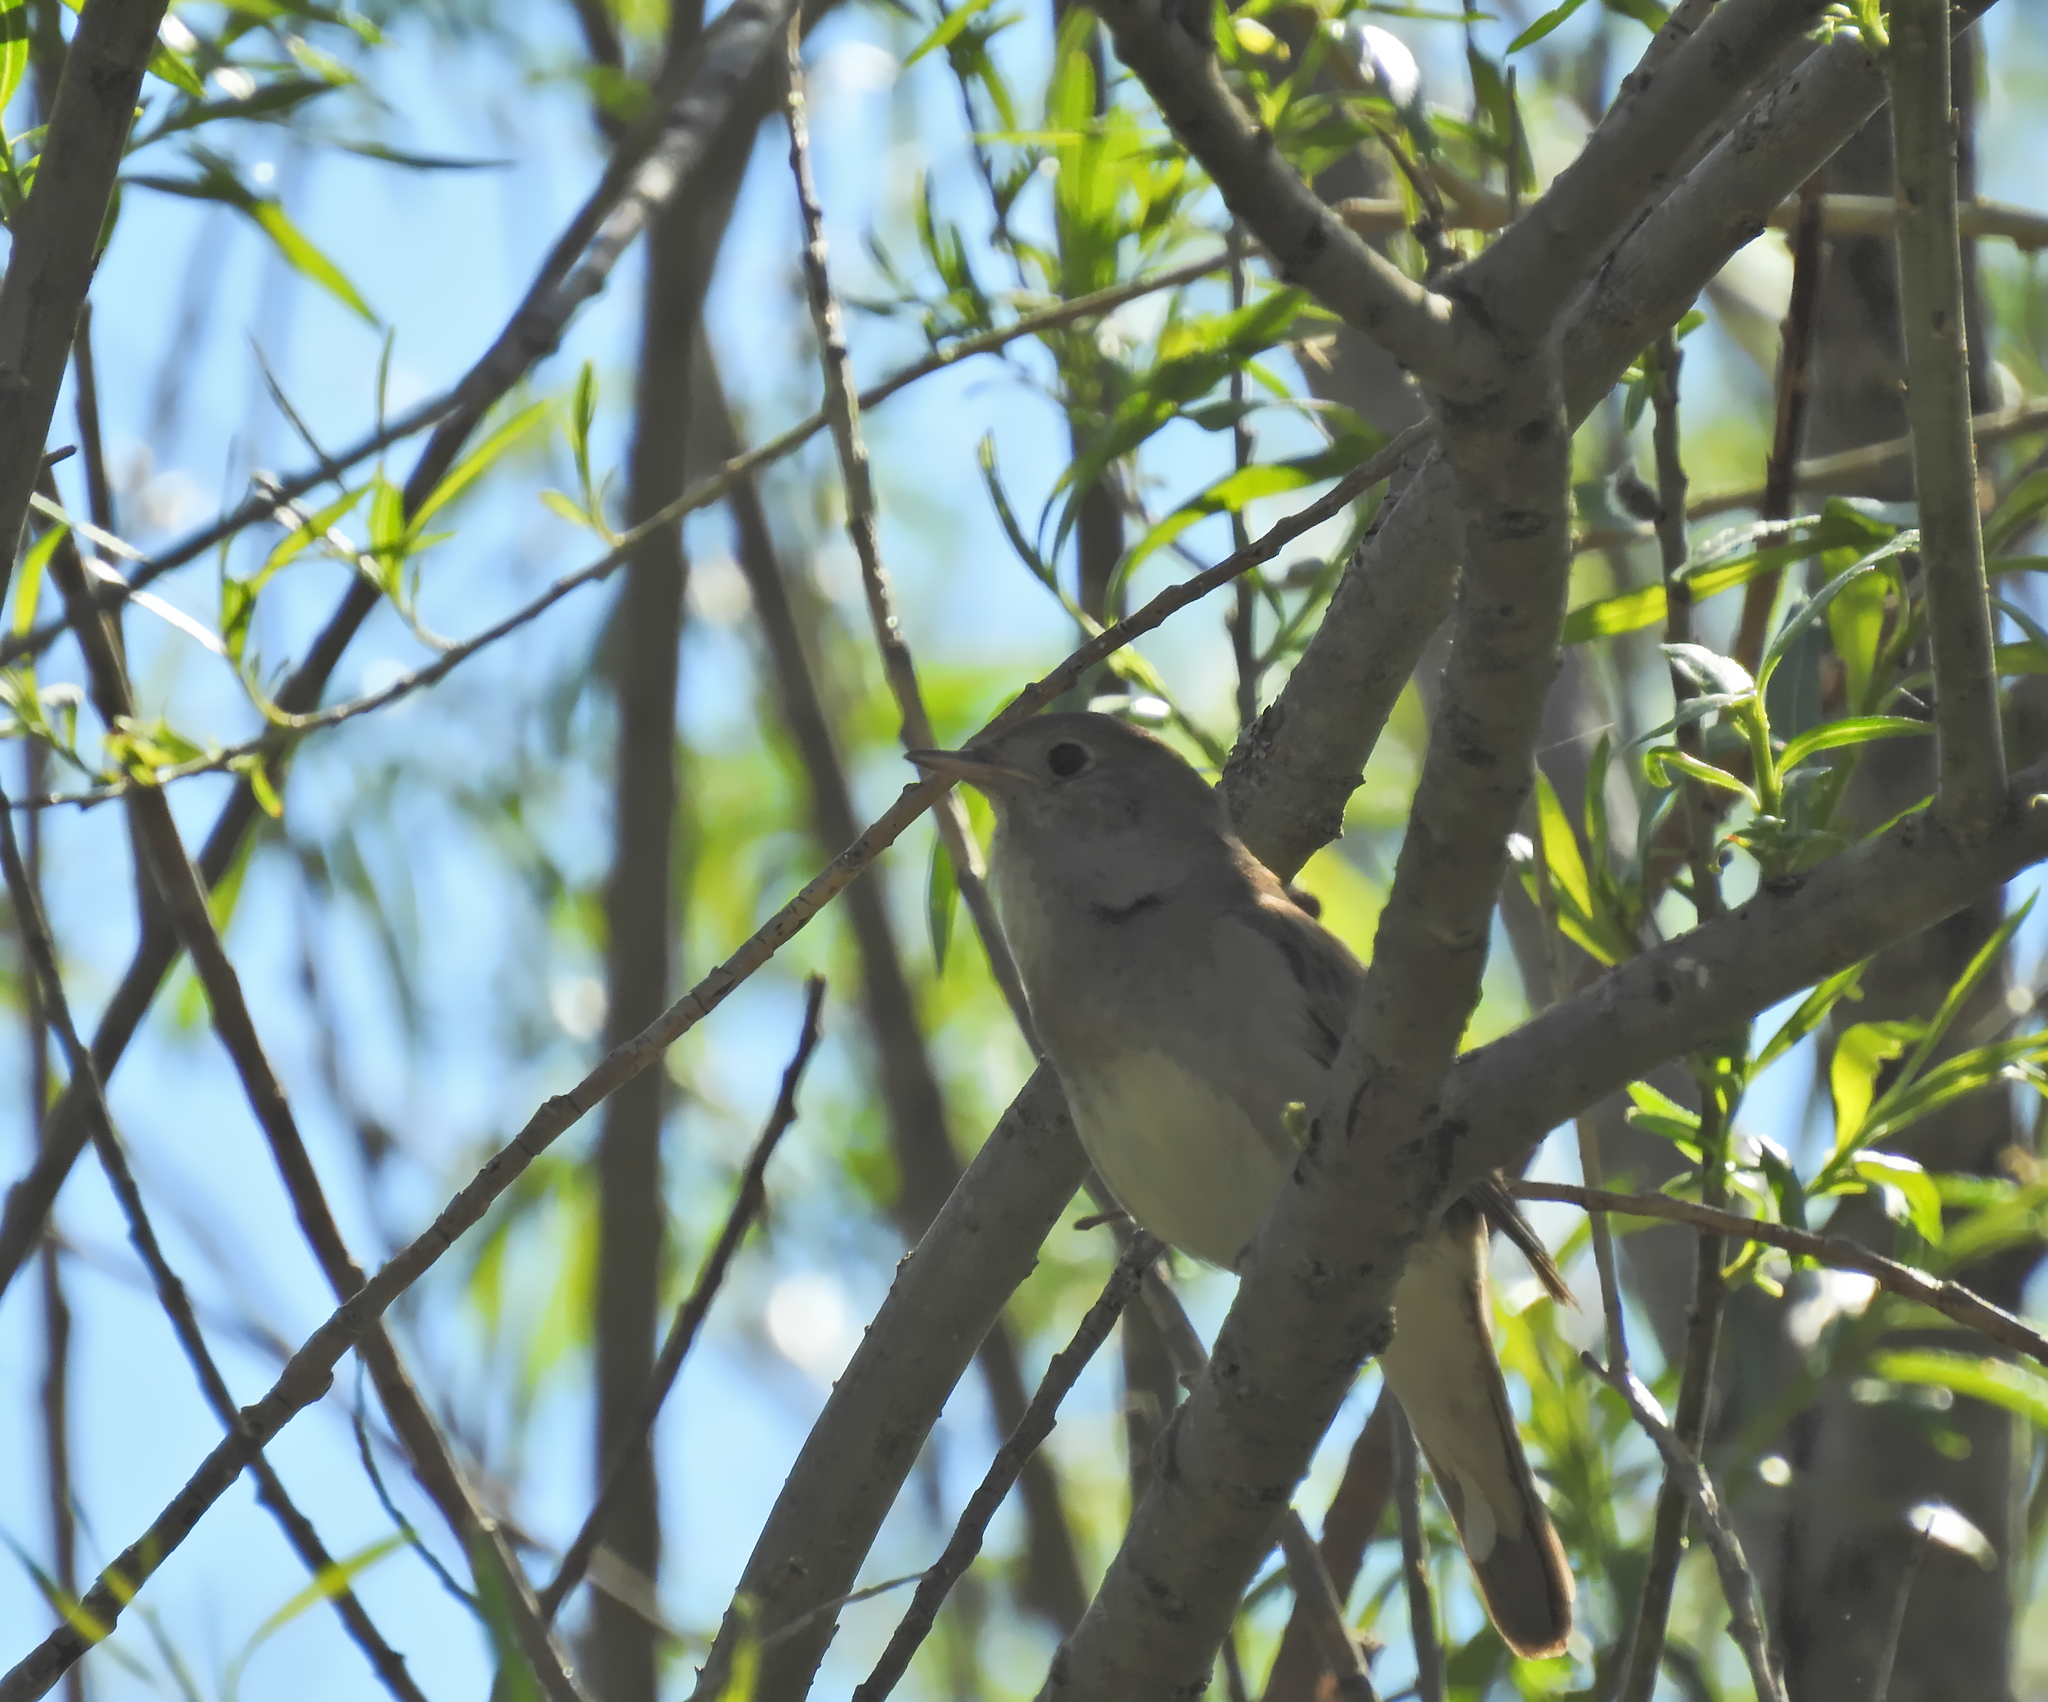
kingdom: Animalia
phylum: Chordata
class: Aves
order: Passeriformes
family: Muscicapidae
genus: Luscinia
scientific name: Luscinia luscinia
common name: Thrush nightingale
